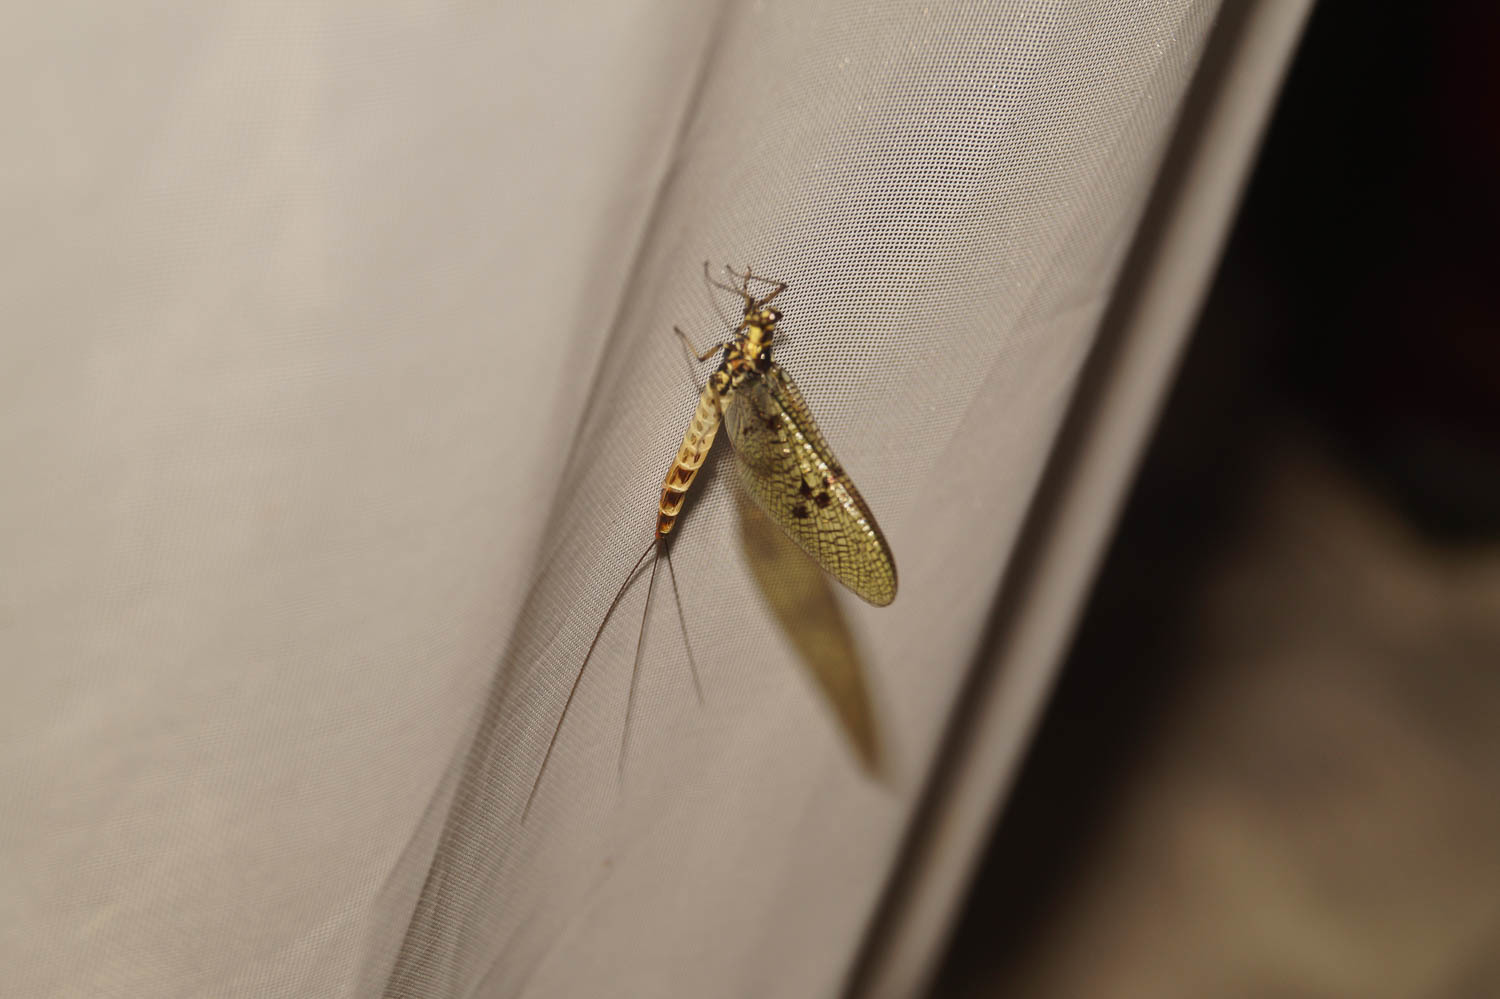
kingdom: Animalia
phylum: Arthropoda
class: Insecta
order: Ephemeroptera
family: Ephemeridae
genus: Ephemera
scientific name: Ephemera danica
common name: Green dun
